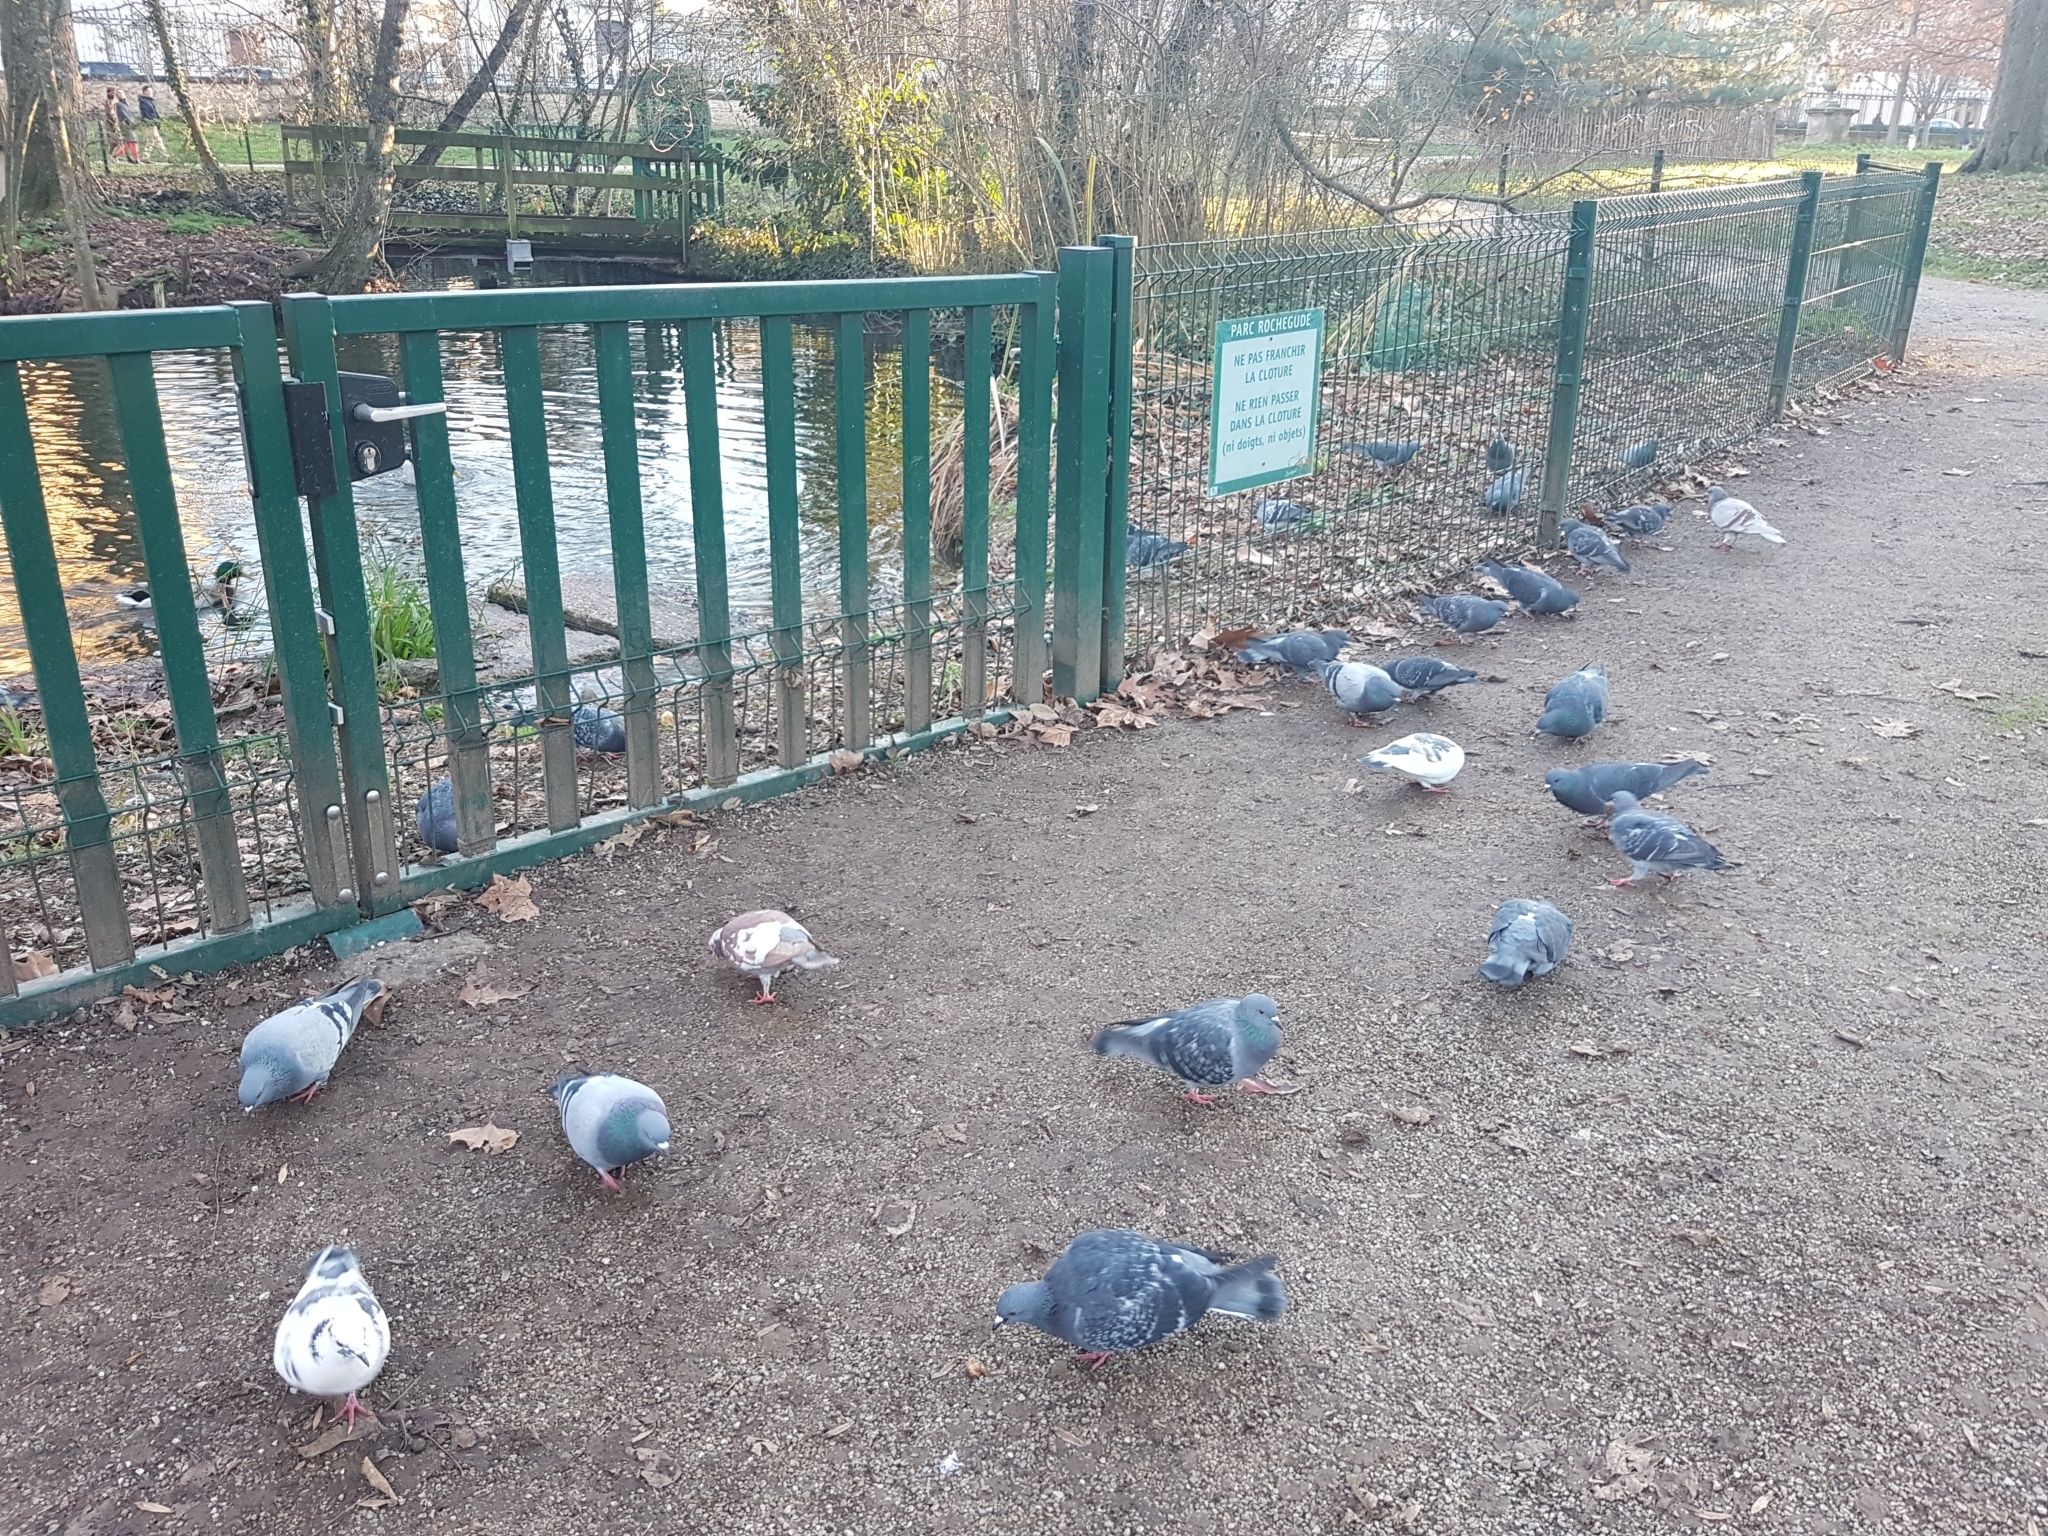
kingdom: Animalia
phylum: Chordata
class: Aves
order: Columbiformes
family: Columbidae
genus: Columba
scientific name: Columba livia
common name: Rock pigeon
